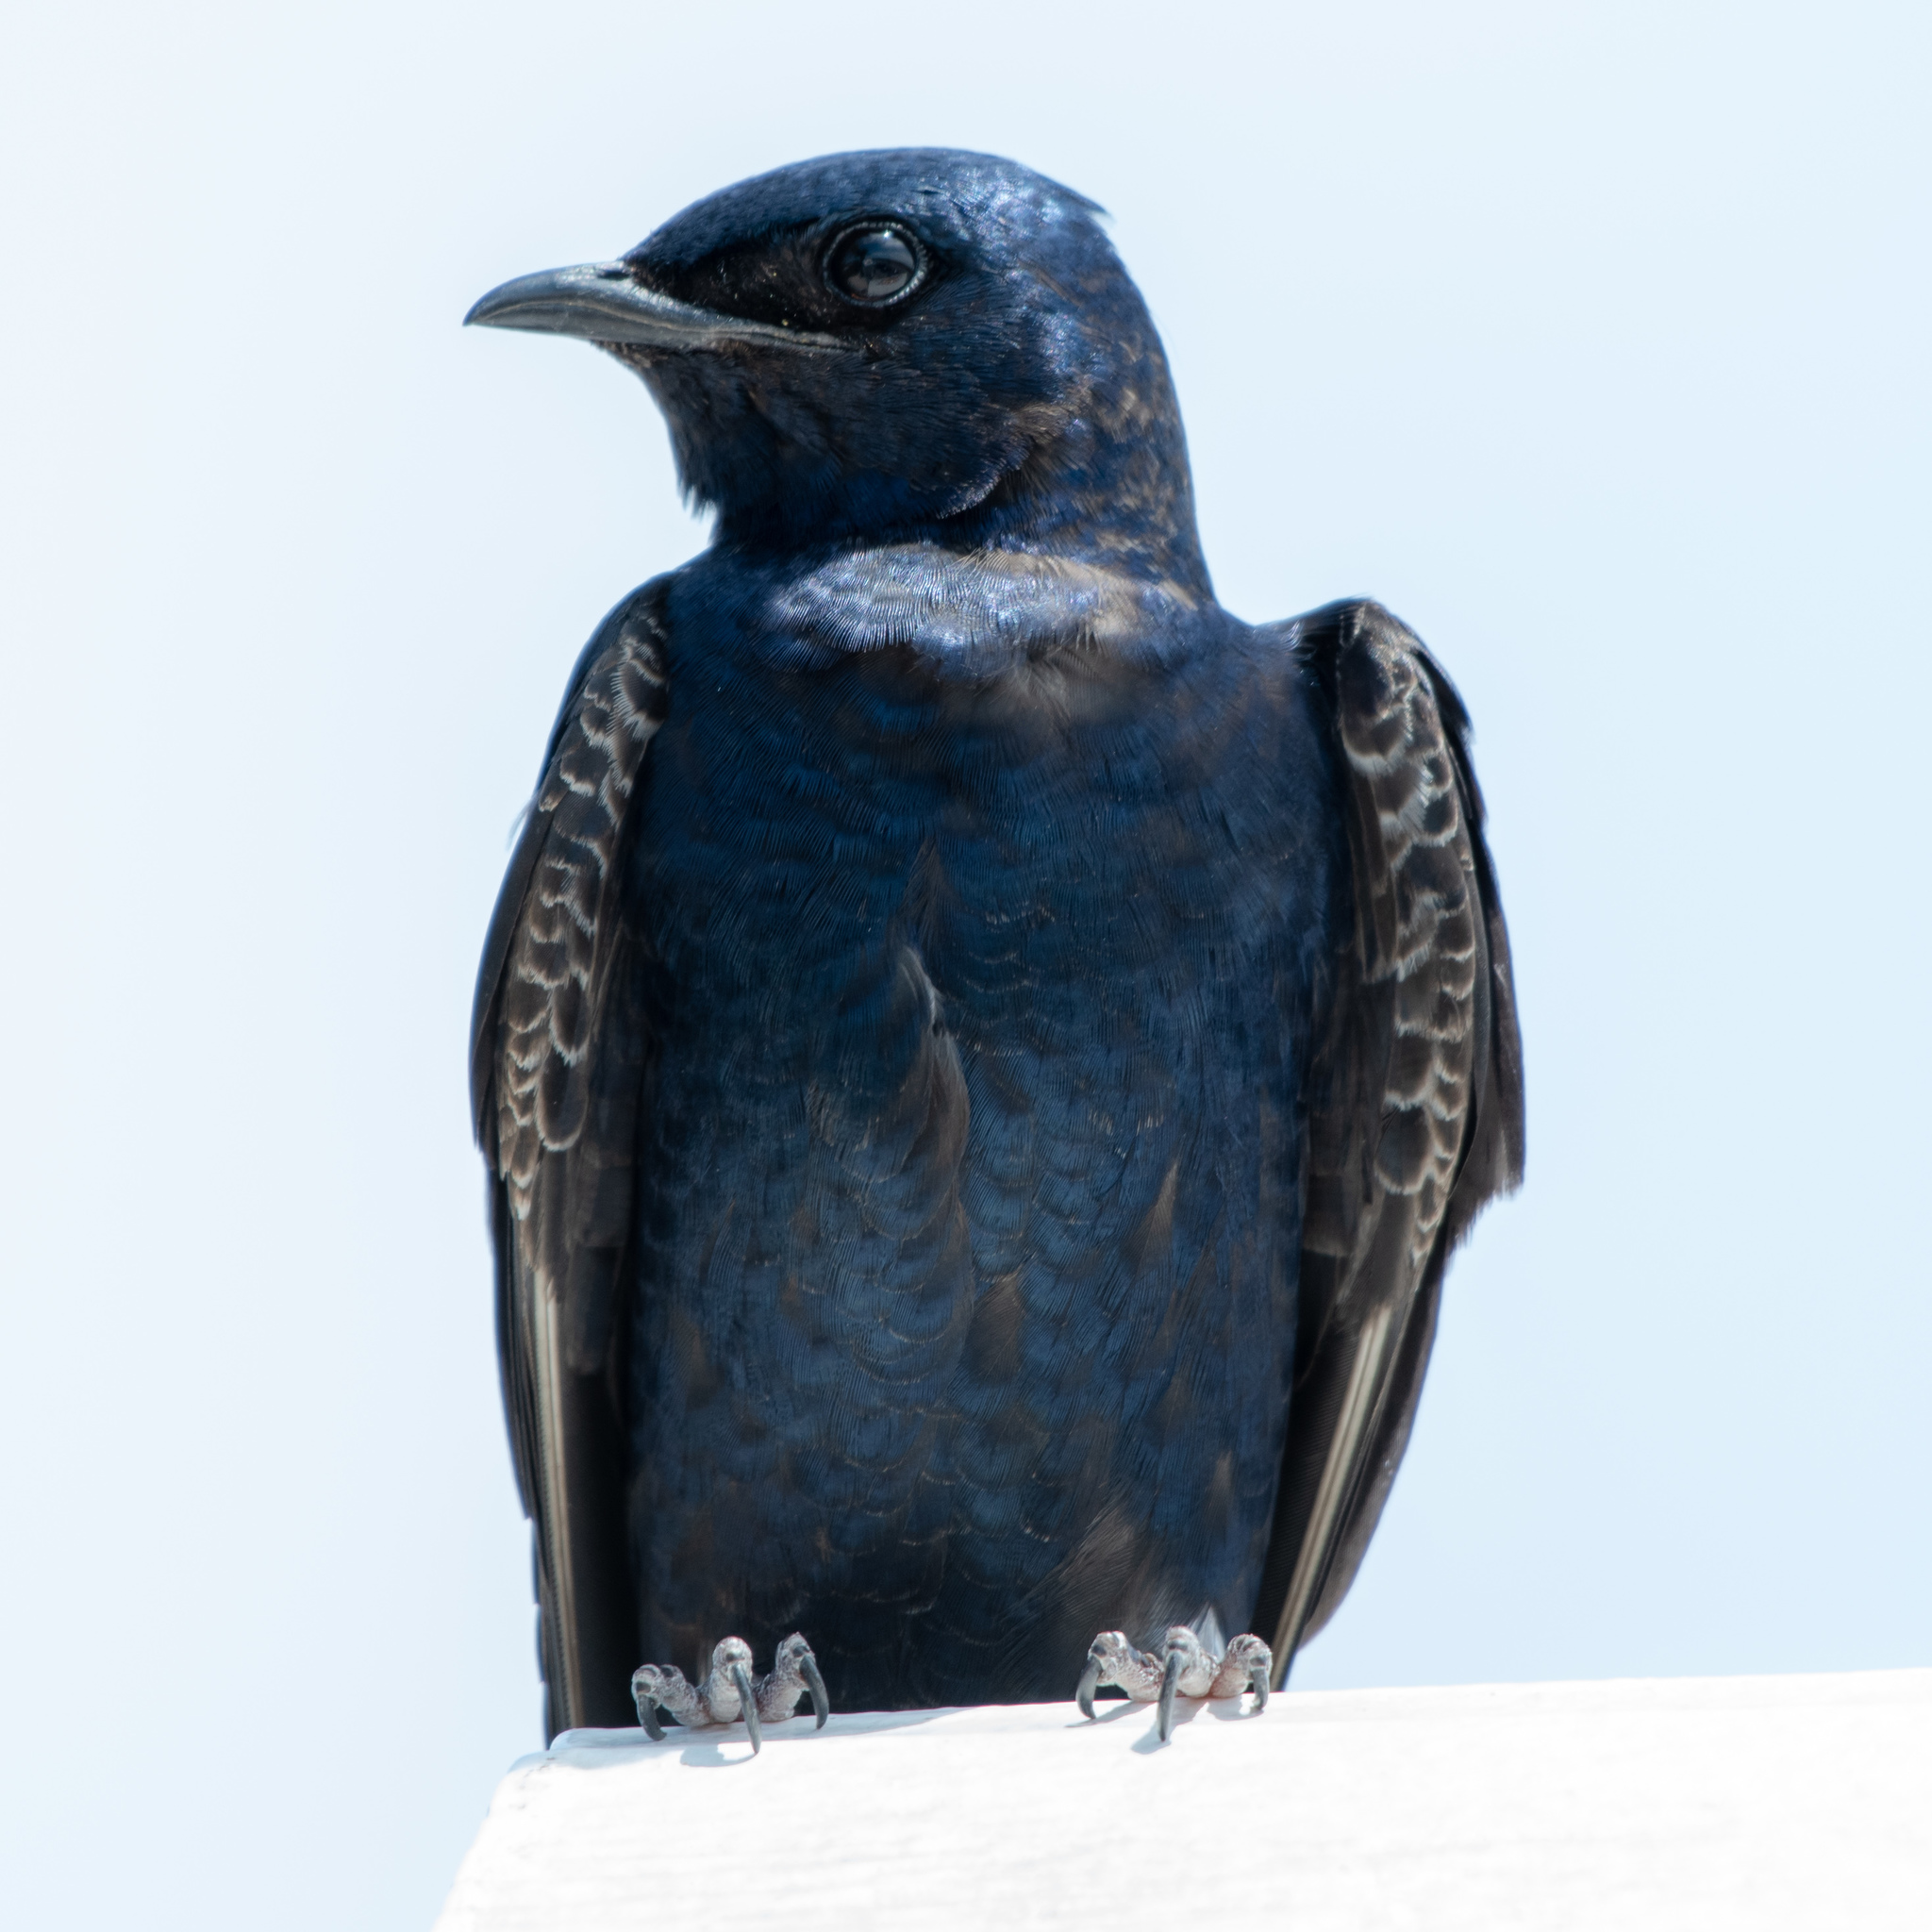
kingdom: Animalia
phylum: Chordata
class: Aves
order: Passeriformes
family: Hirundinidae
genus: Progne
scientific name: Progne subis
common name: Purple martin
